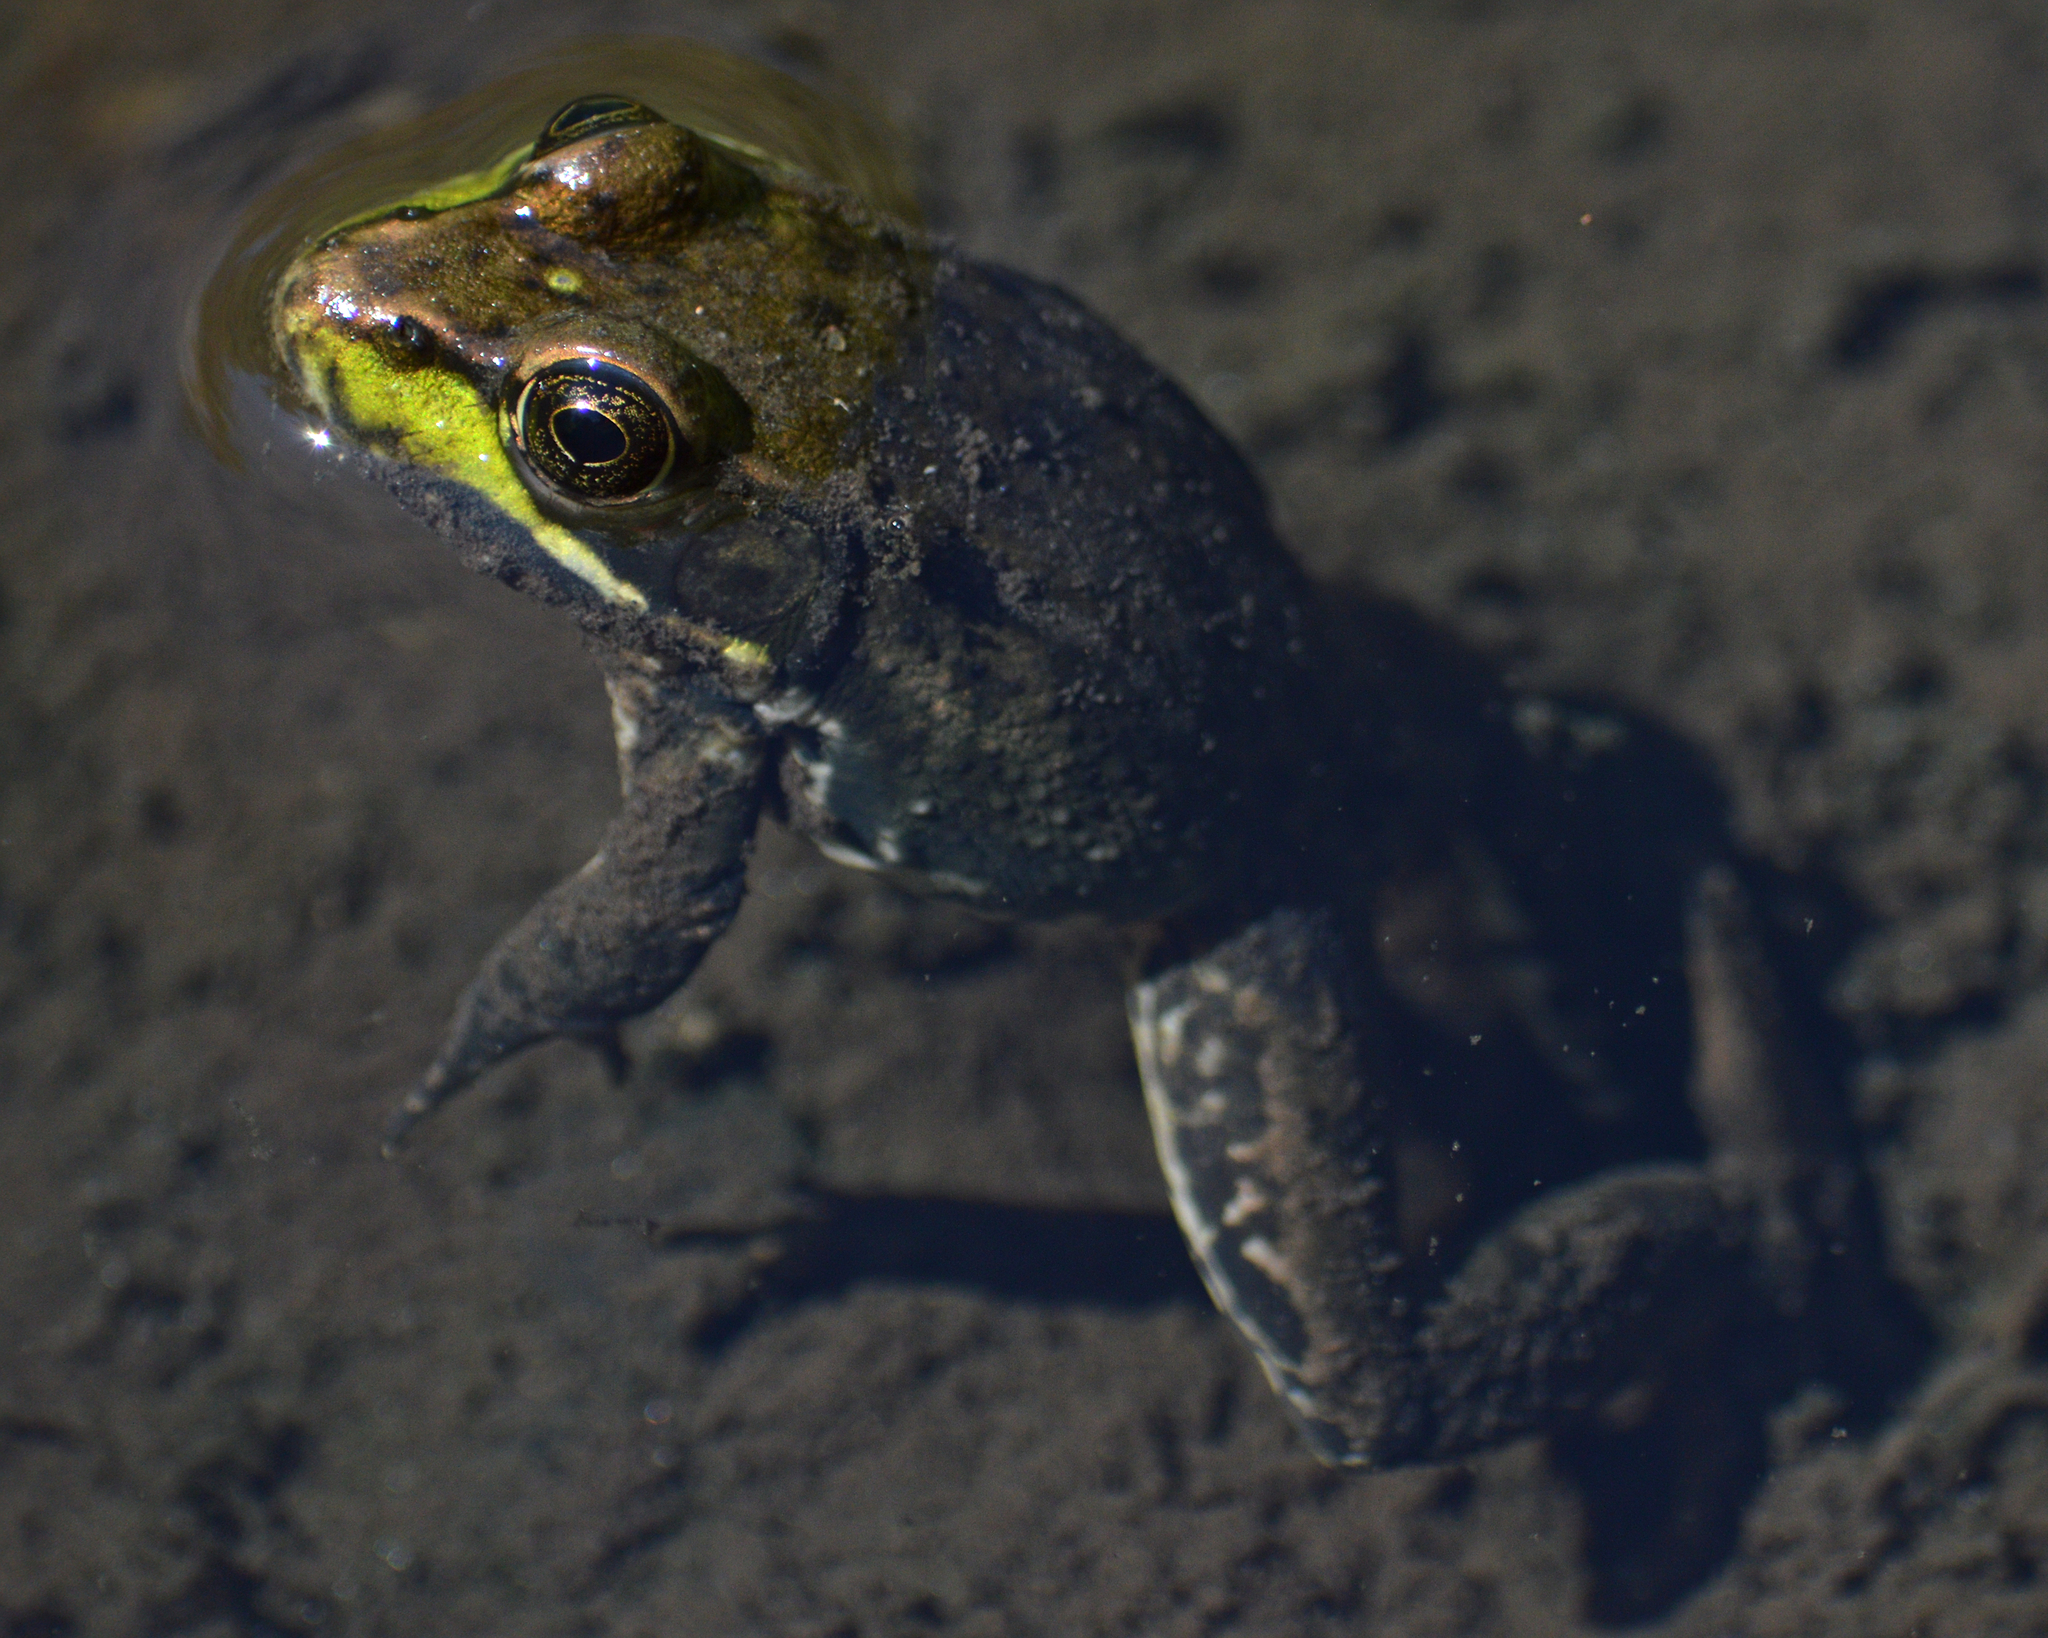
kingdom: Animalia
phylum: Chordata
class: Amphibia
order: Anura
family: Ranidae
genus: Lithobates
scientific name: Lithobates clamitans
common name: Green frog
